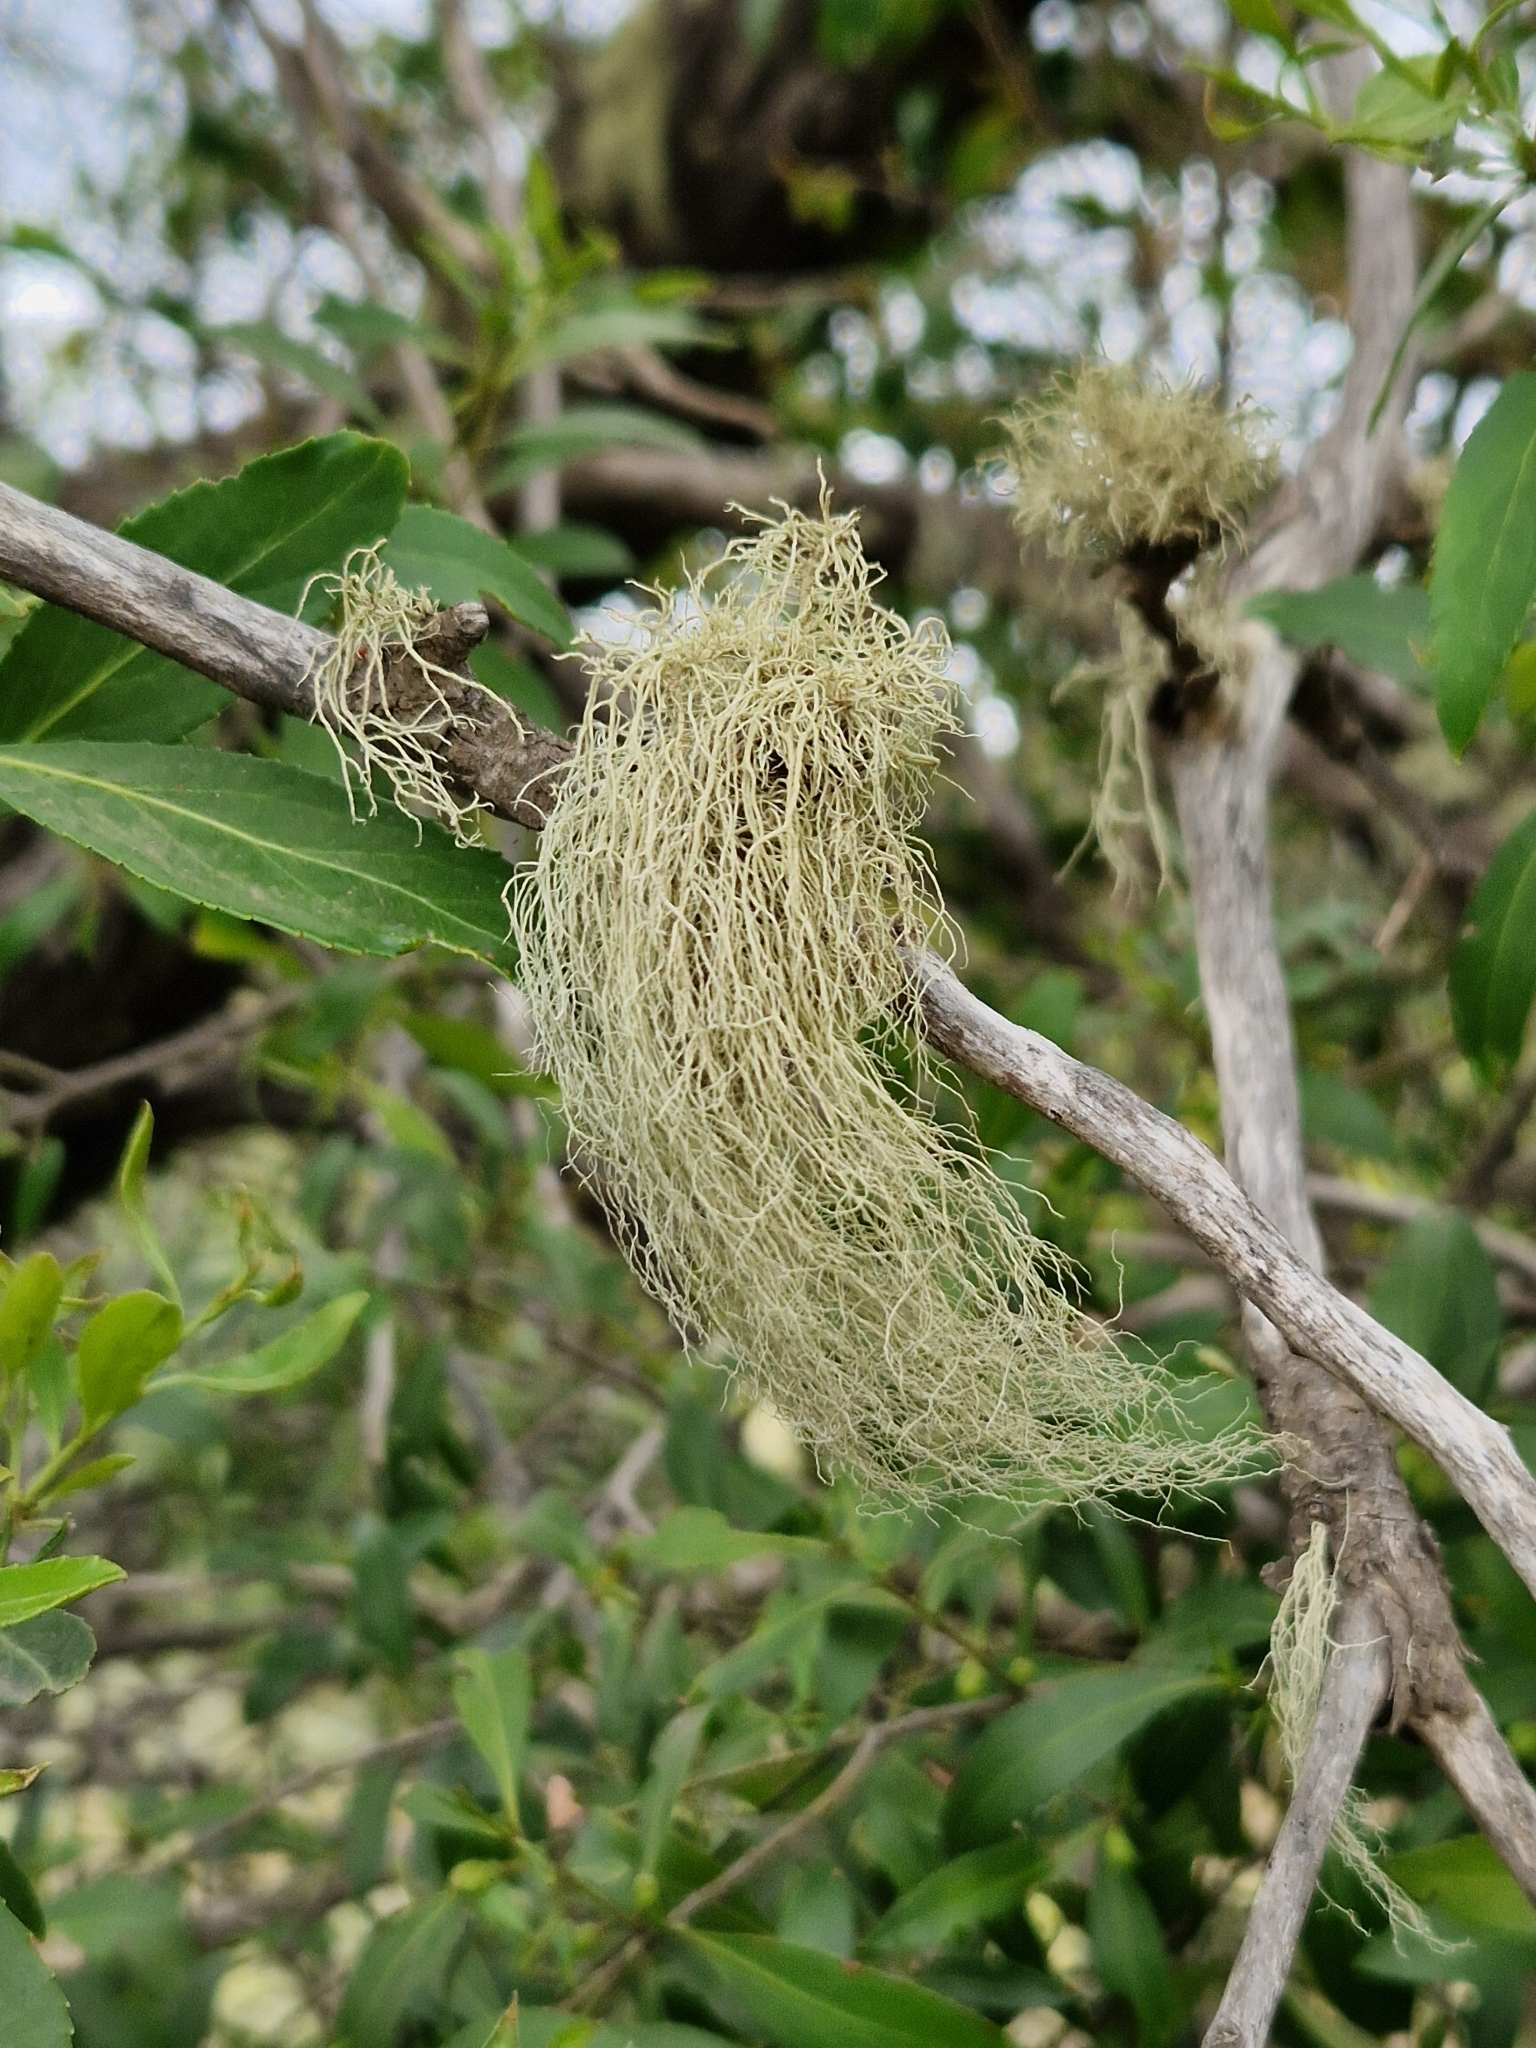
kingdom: Fungi
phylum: Ascomycota
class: Lecanoromycetes
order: Lecanorales
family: Parmeliaceae
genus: Usnea
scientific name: Usnea barbata
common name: Old man's beard lichen
